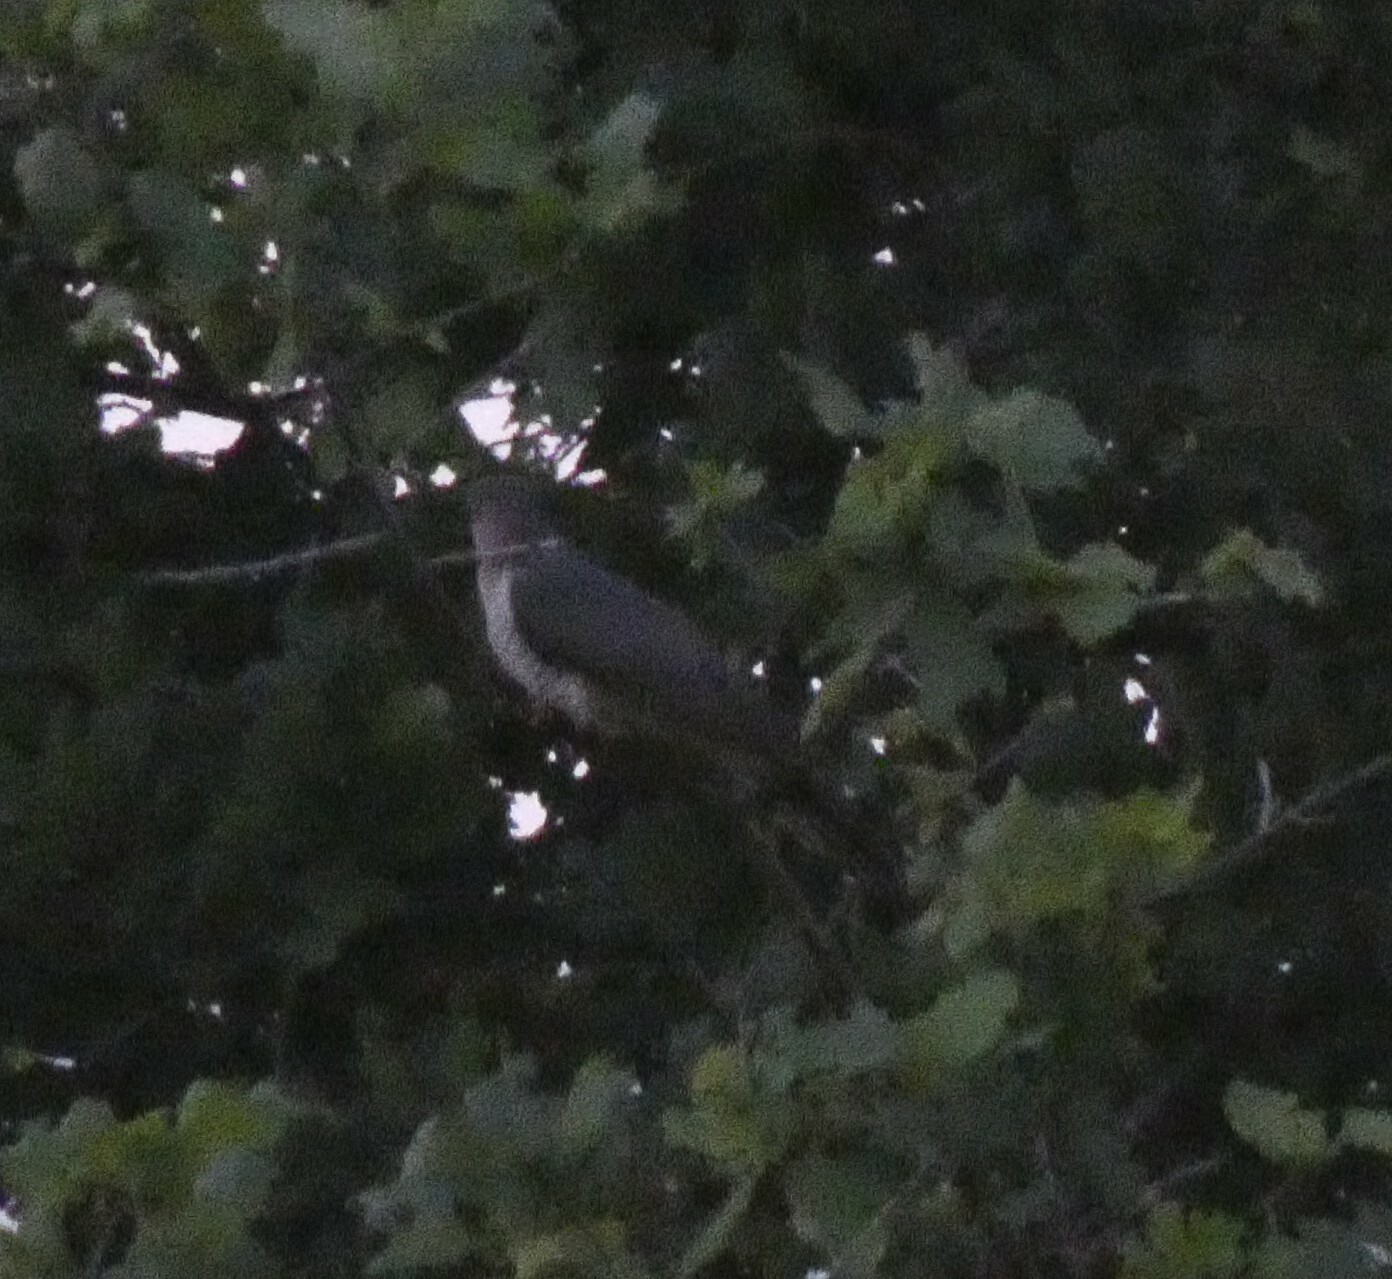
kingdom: Animalia
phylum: Chordata
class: Aves
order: Cuculiformes
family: Cuculidae
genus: Cuculus
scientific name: Cuculus canorus
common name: Common cuckoo
